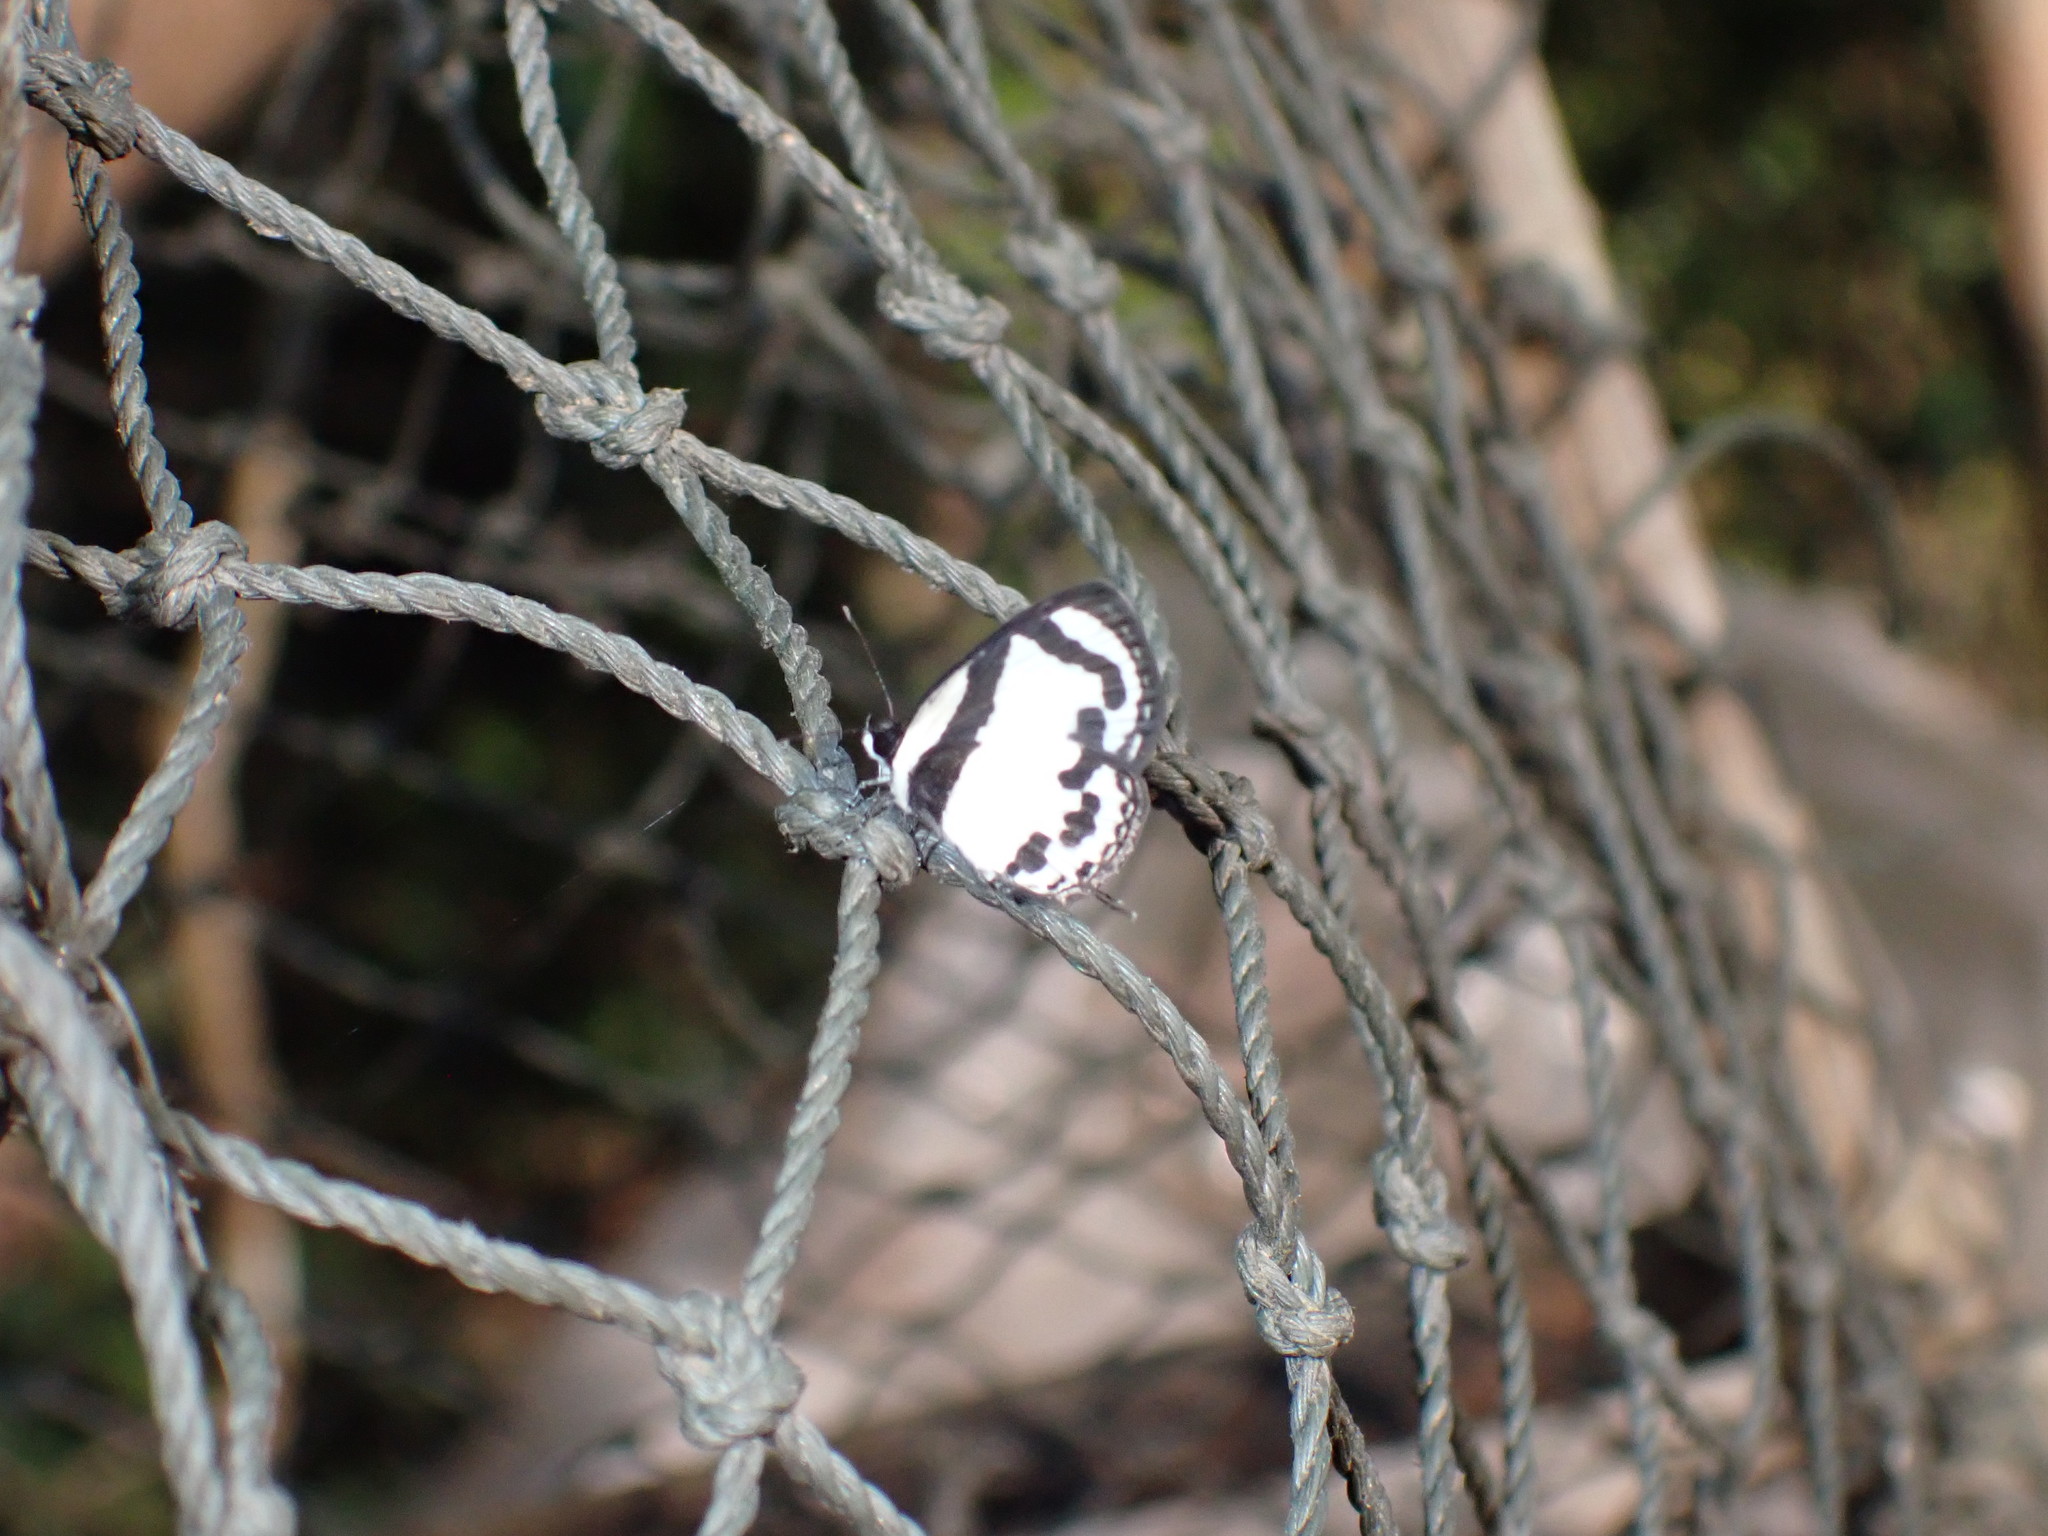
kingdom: Animalia
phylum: Arthropoda
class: Insecta
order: Lepidoptera
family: Lycaenidae
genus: Caleta
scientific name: Caleta roxus
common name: Straight pierrot
